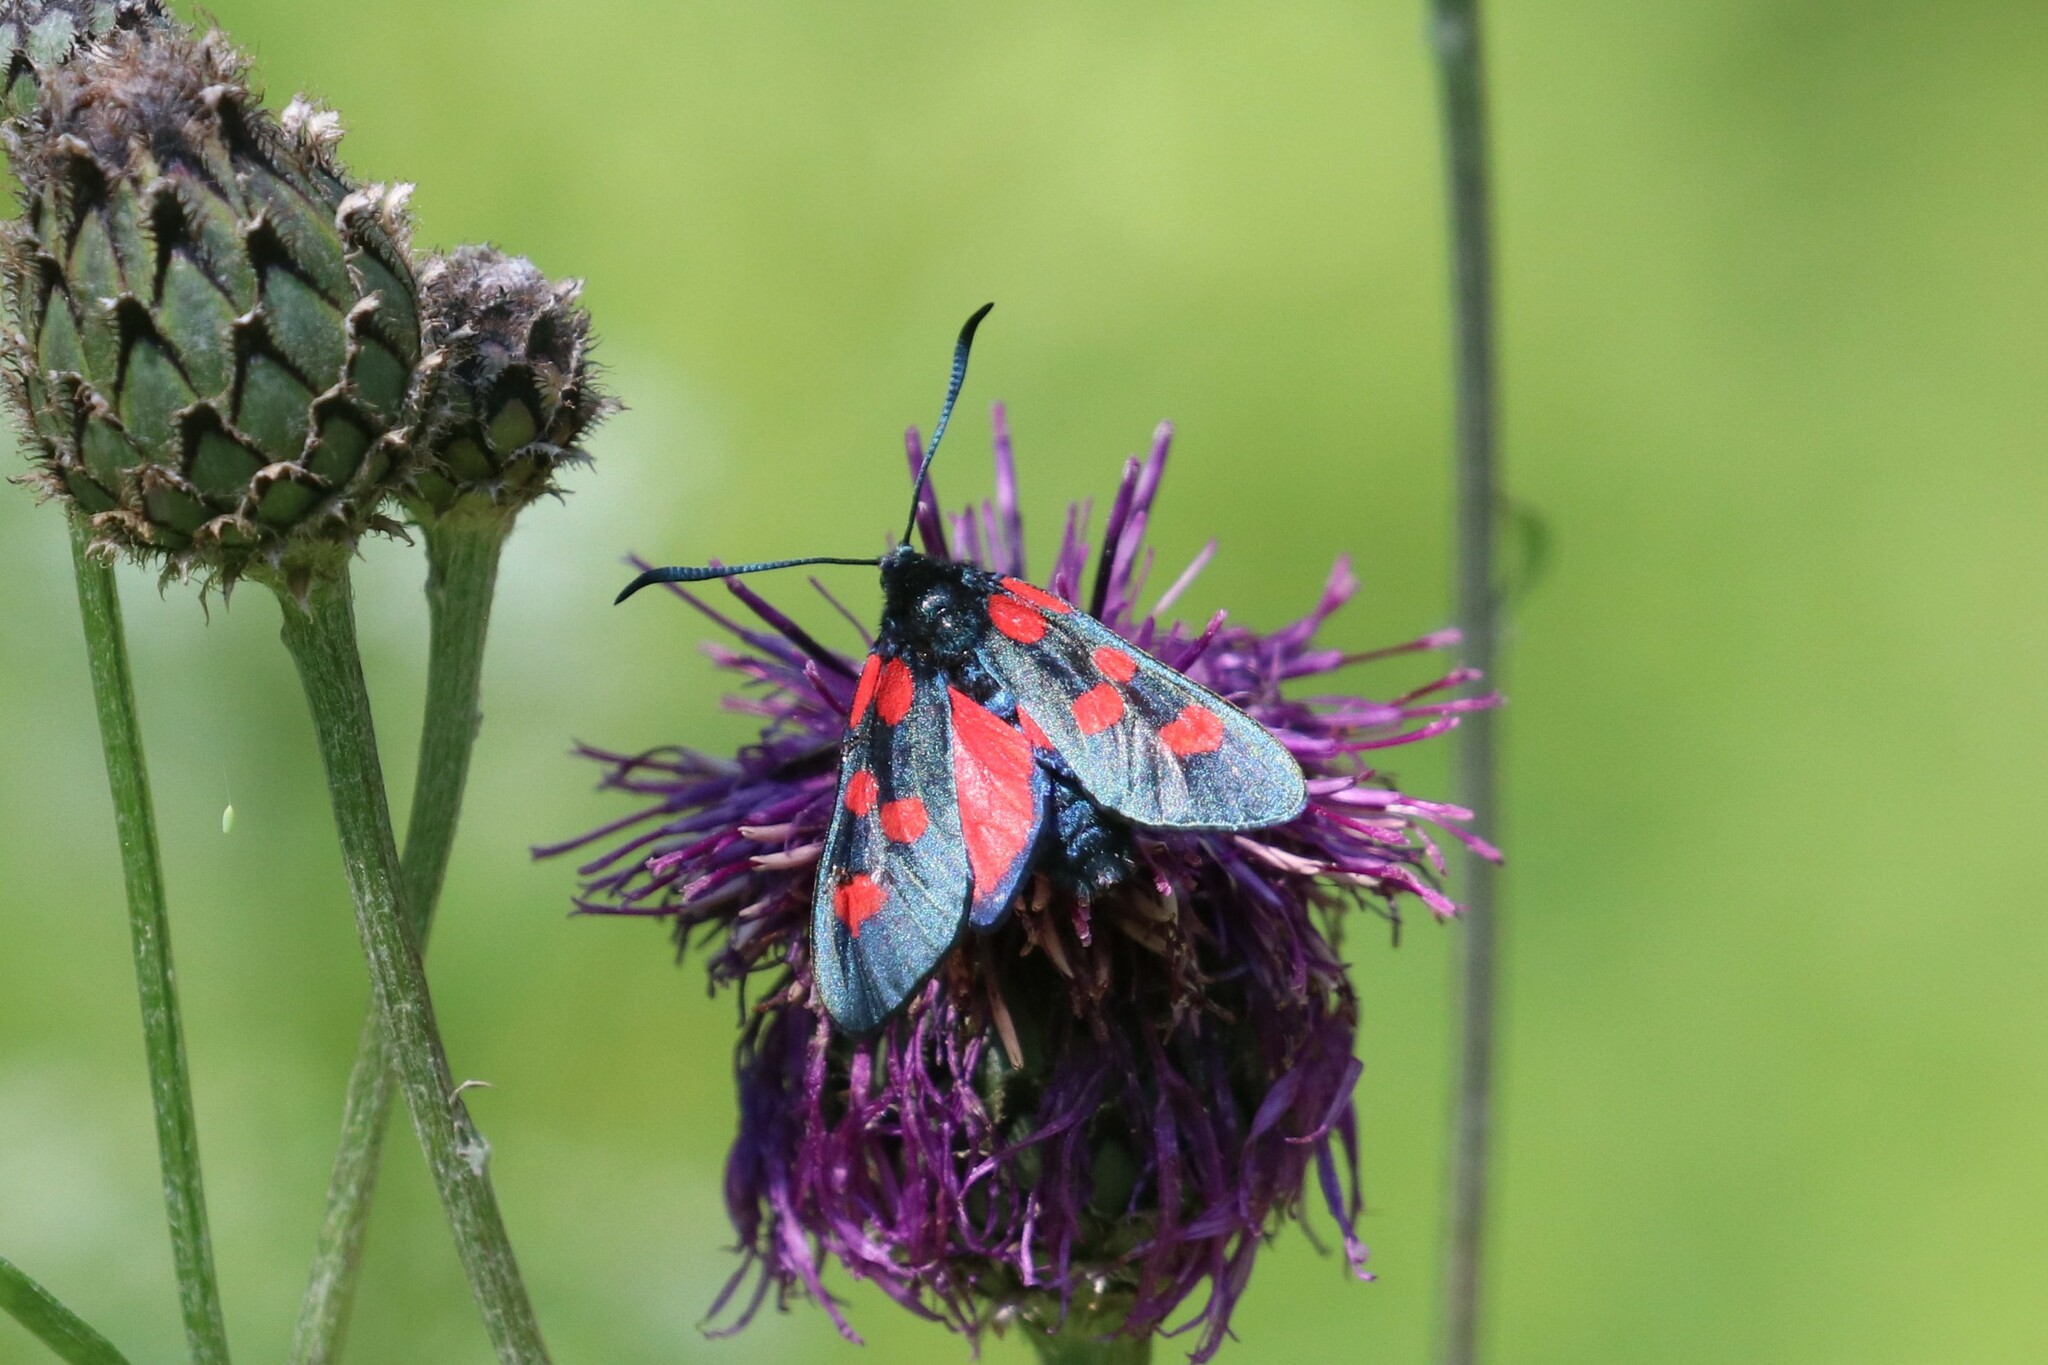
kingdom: Animalia
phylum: Arthropoda
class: Insecta
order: Lepidoptera
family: Zygaenidae
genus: Zygaena
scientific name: Zygaena lonicerae
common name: Narrow-bordered five-spot burnet
